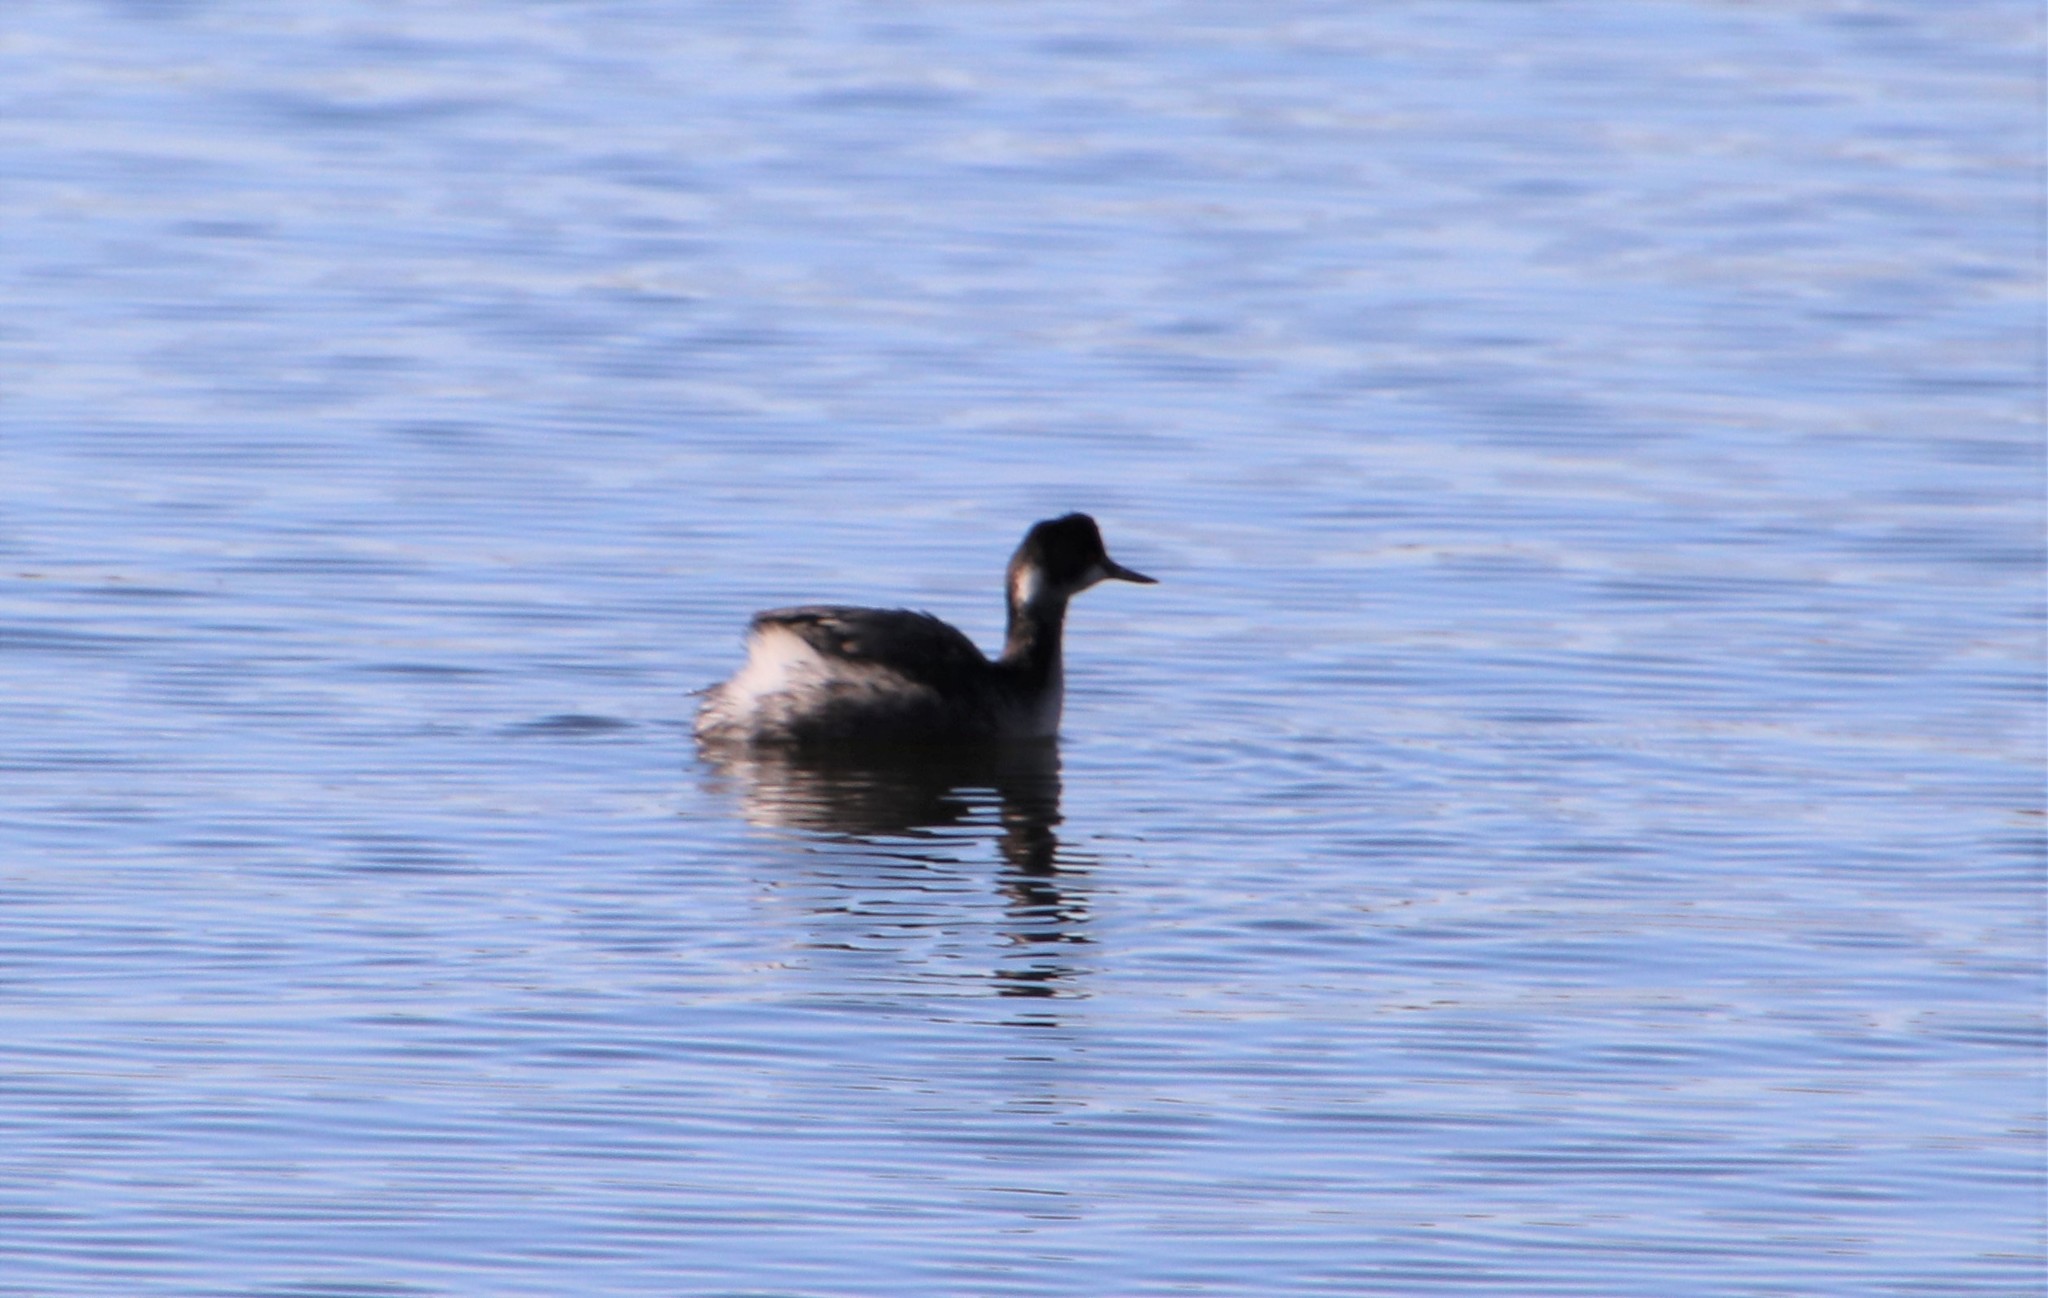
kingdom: Animalia
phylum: Chordata
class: Aves
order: Podicipediformes
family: Podicipedidae
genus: Podiceps
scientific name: Podiceps nigricollis
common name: Black-necked grebe
